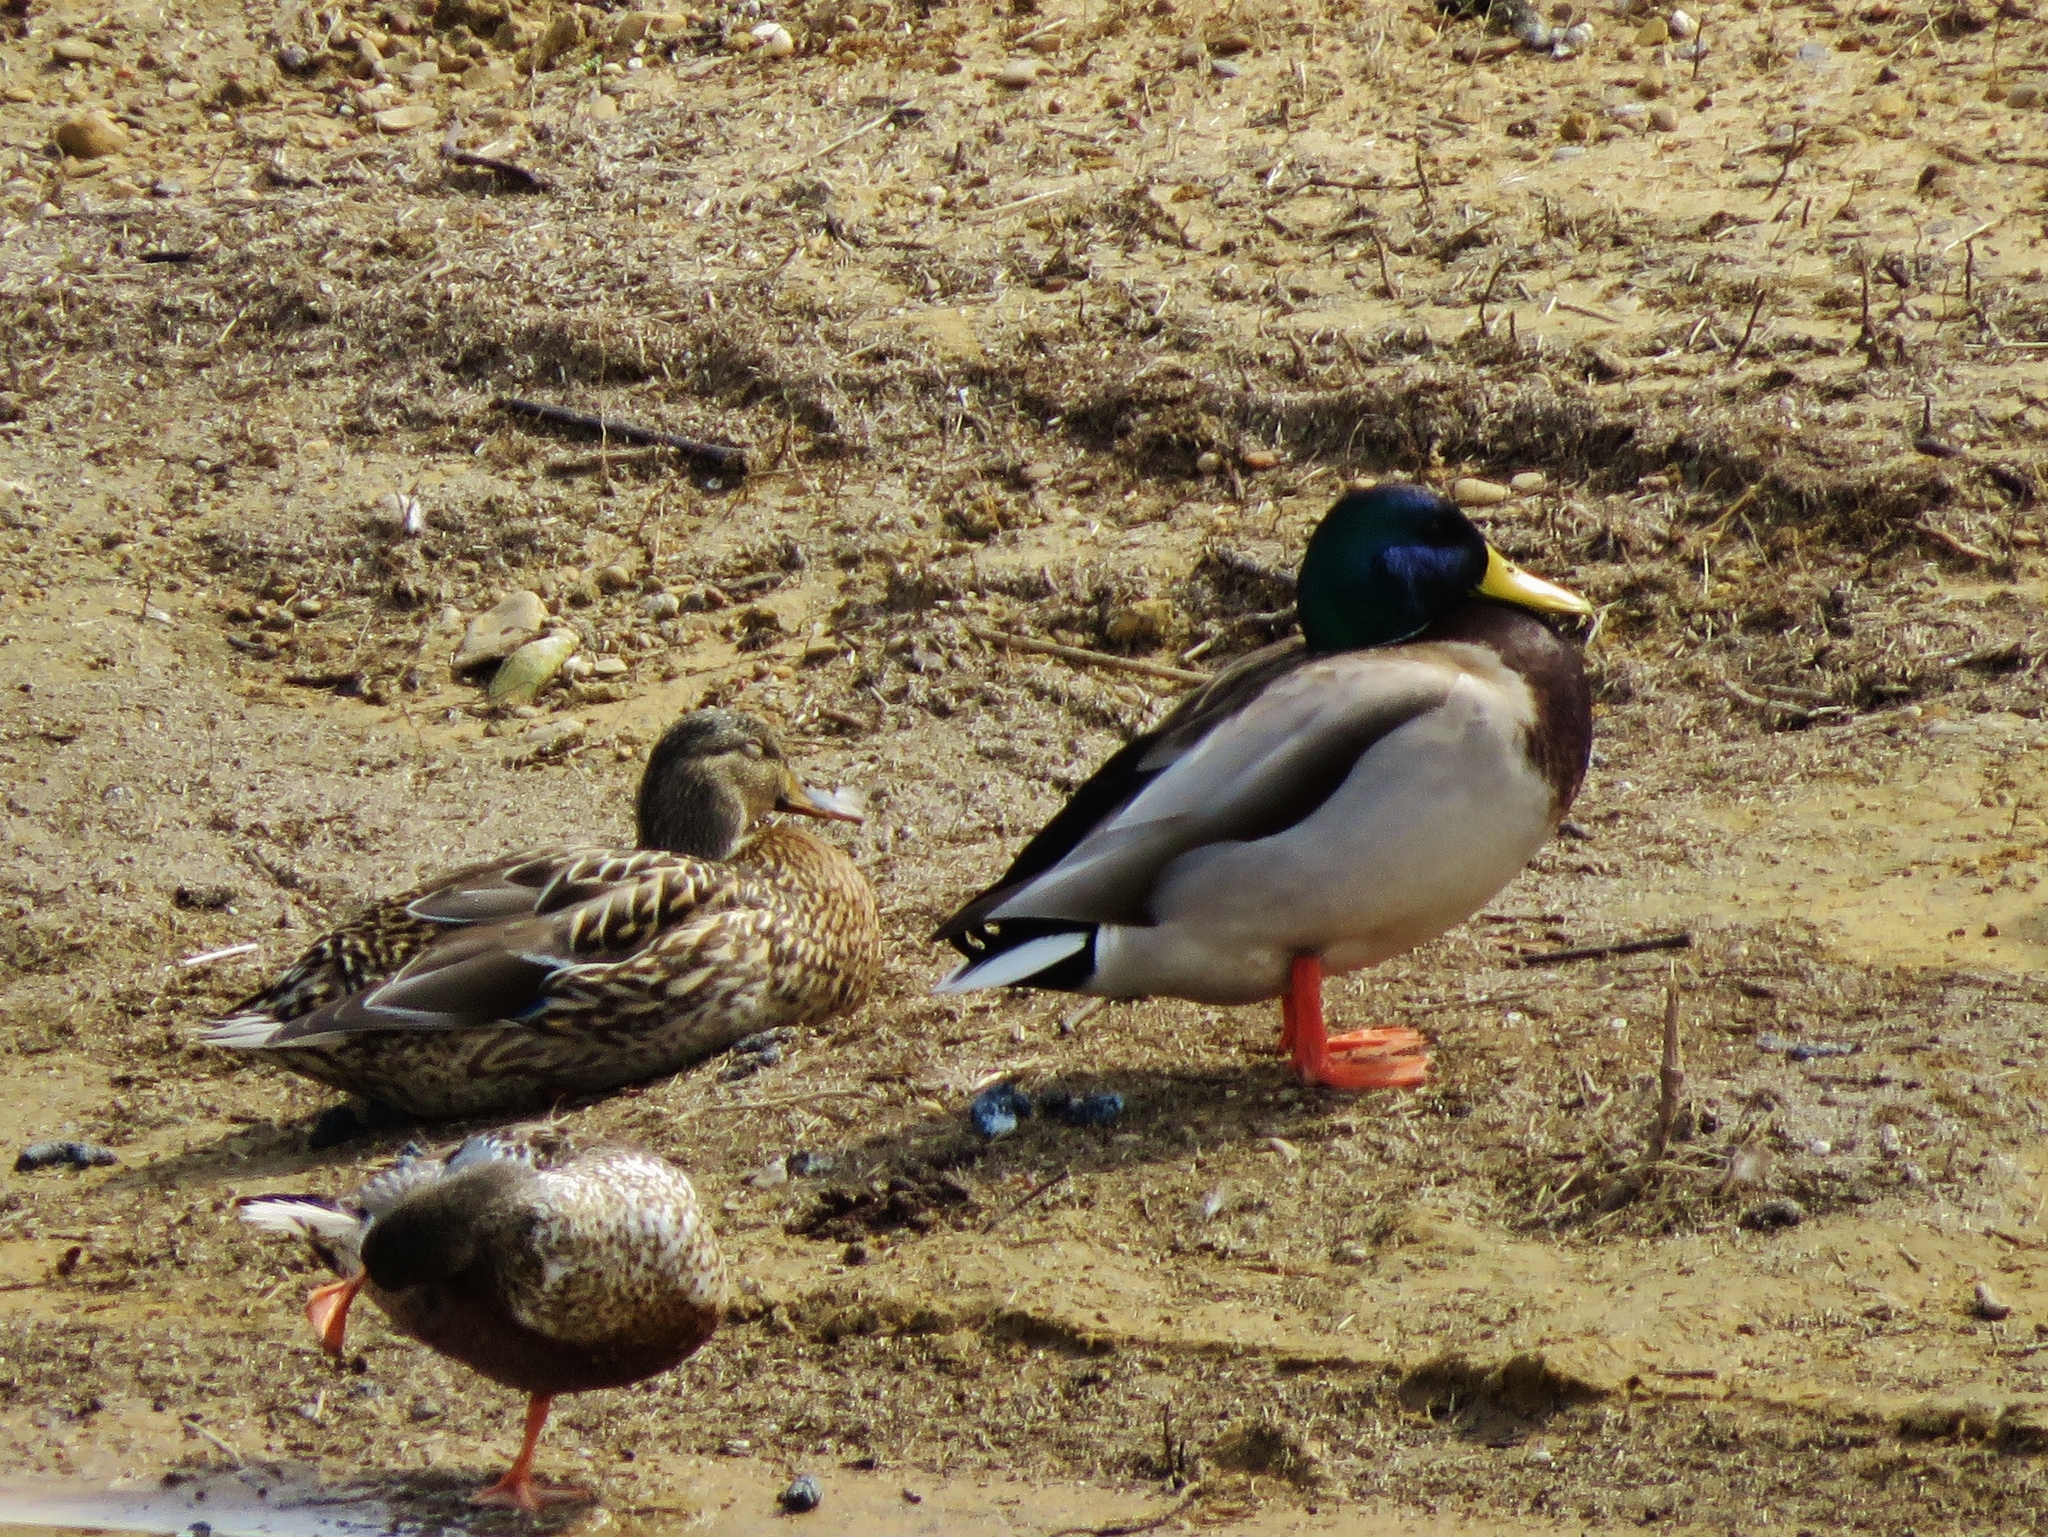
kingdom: Animalia
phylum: Chordata
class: Aves
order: Anseriformes
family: Anatidae
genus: Anas
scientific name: Anas platyrhynchos
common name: Mallard
